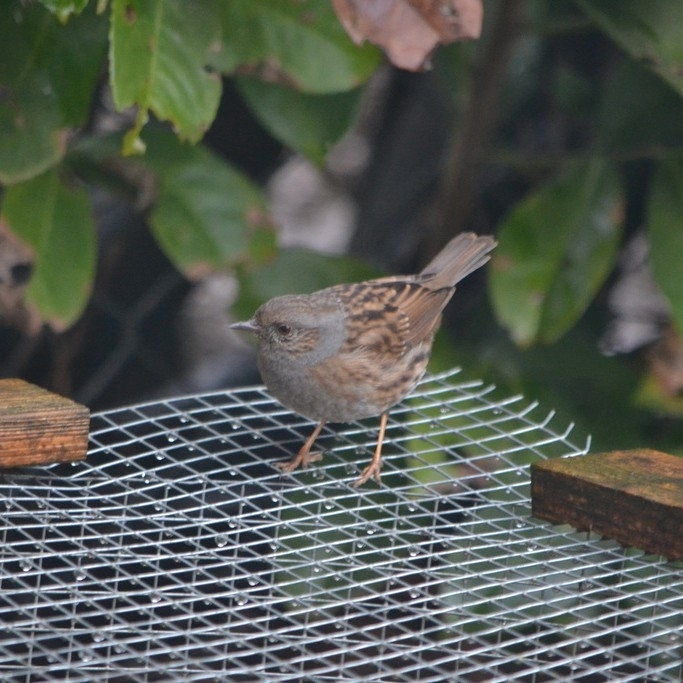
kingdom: Animalia
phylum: Chordata
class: Aves
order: Passeriformes
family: Prunellidae
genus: Prunella
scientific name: Prunella modularis
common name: Dunnock
